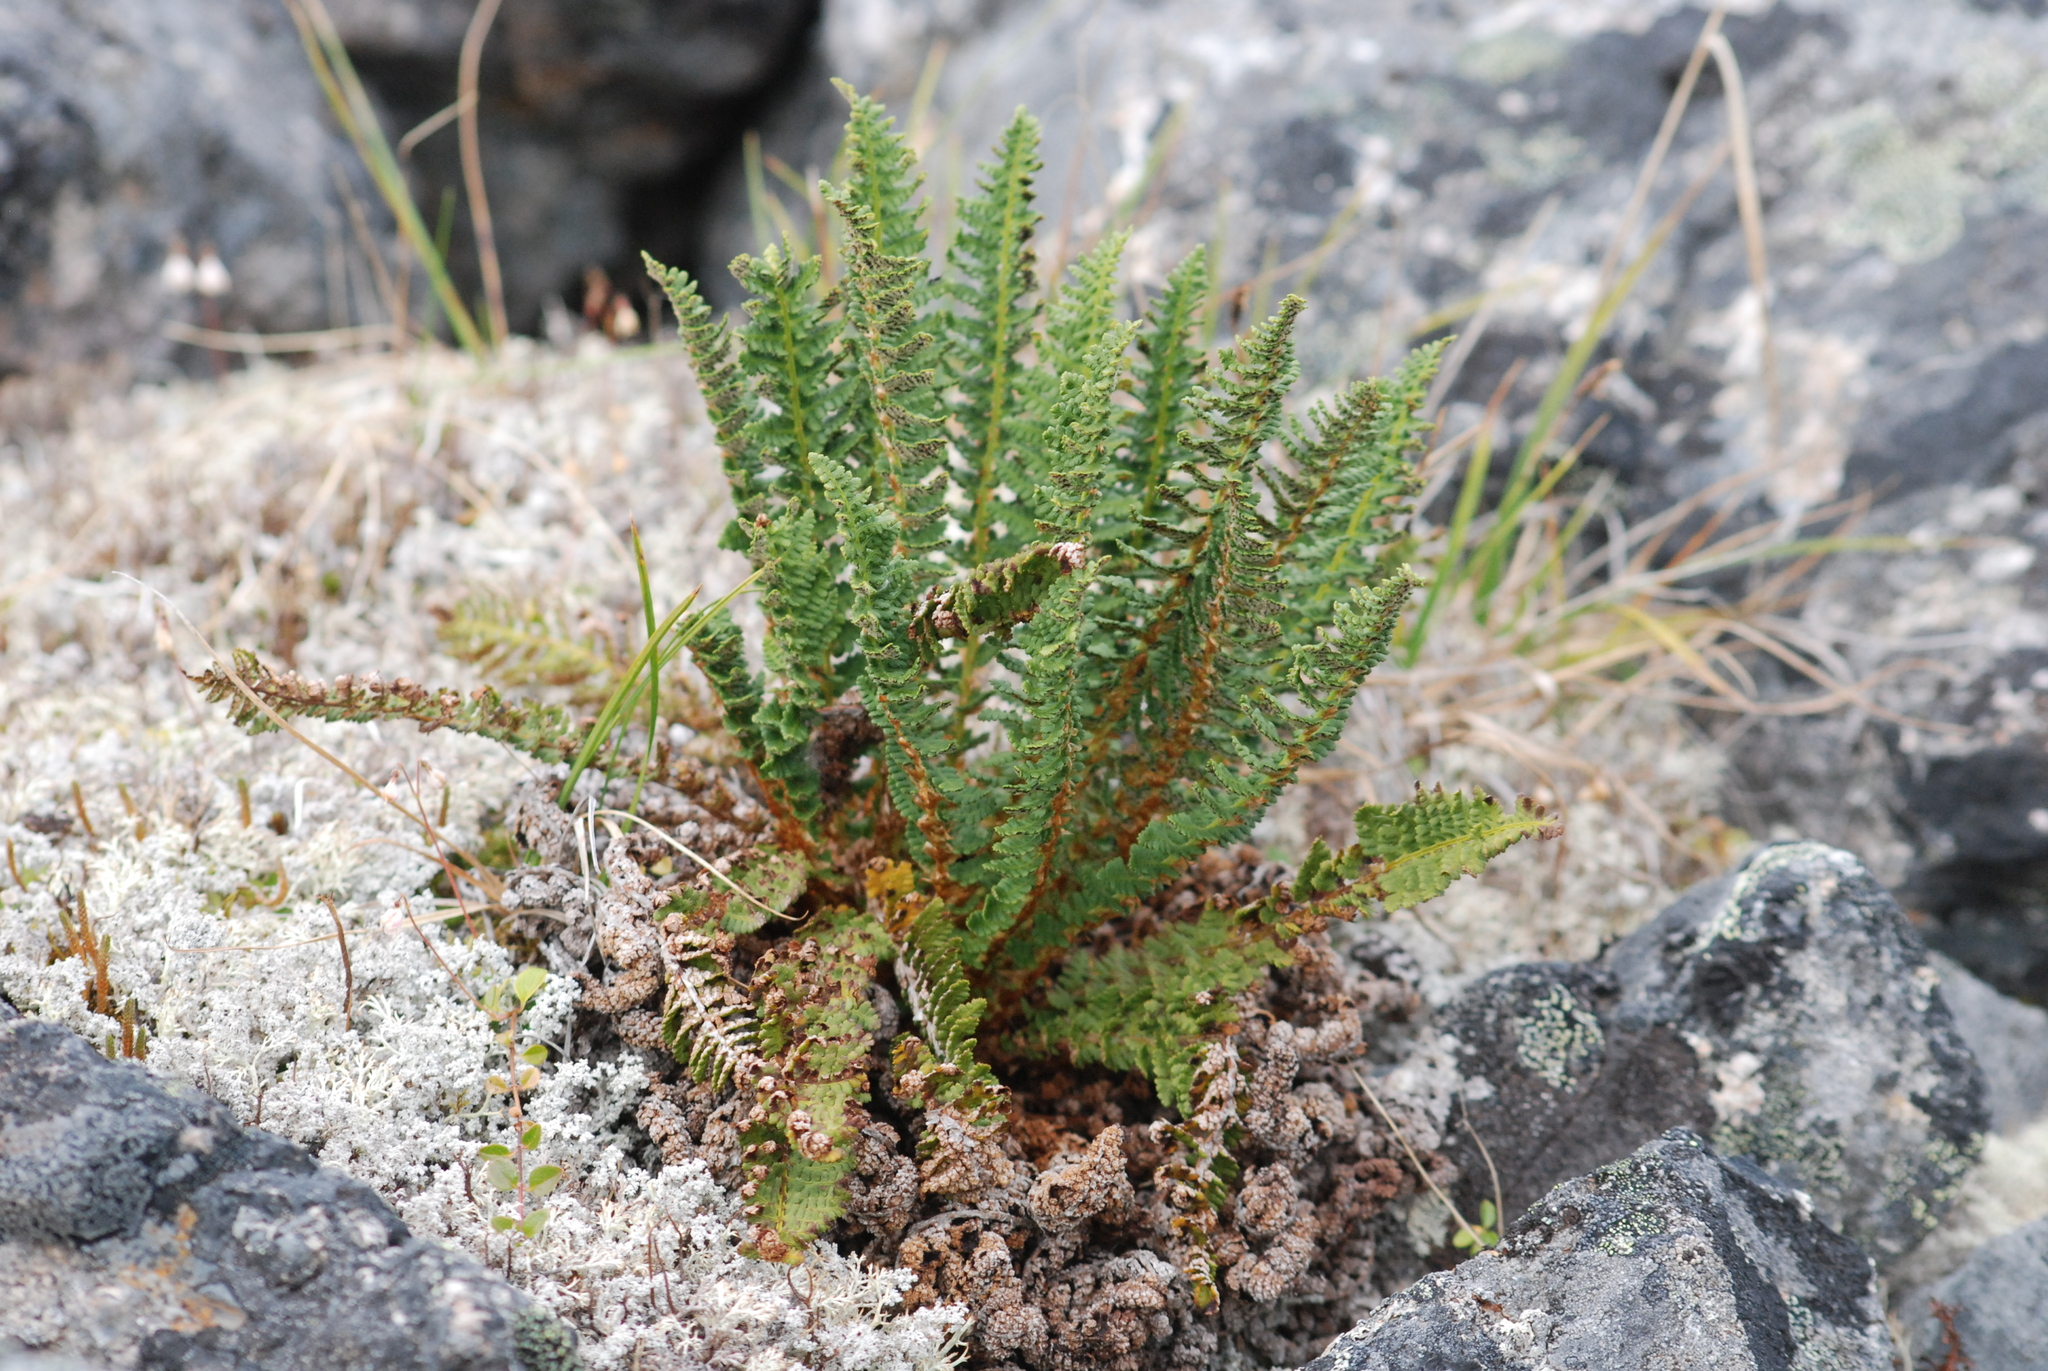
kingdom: Plantae
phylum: Tracheophyta
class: Polypodiopsida
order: Polypodiales
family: Dryopteridaceae
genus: Dryopteris
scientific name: Dryopteris fragrans
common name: Fragrant wood fern
